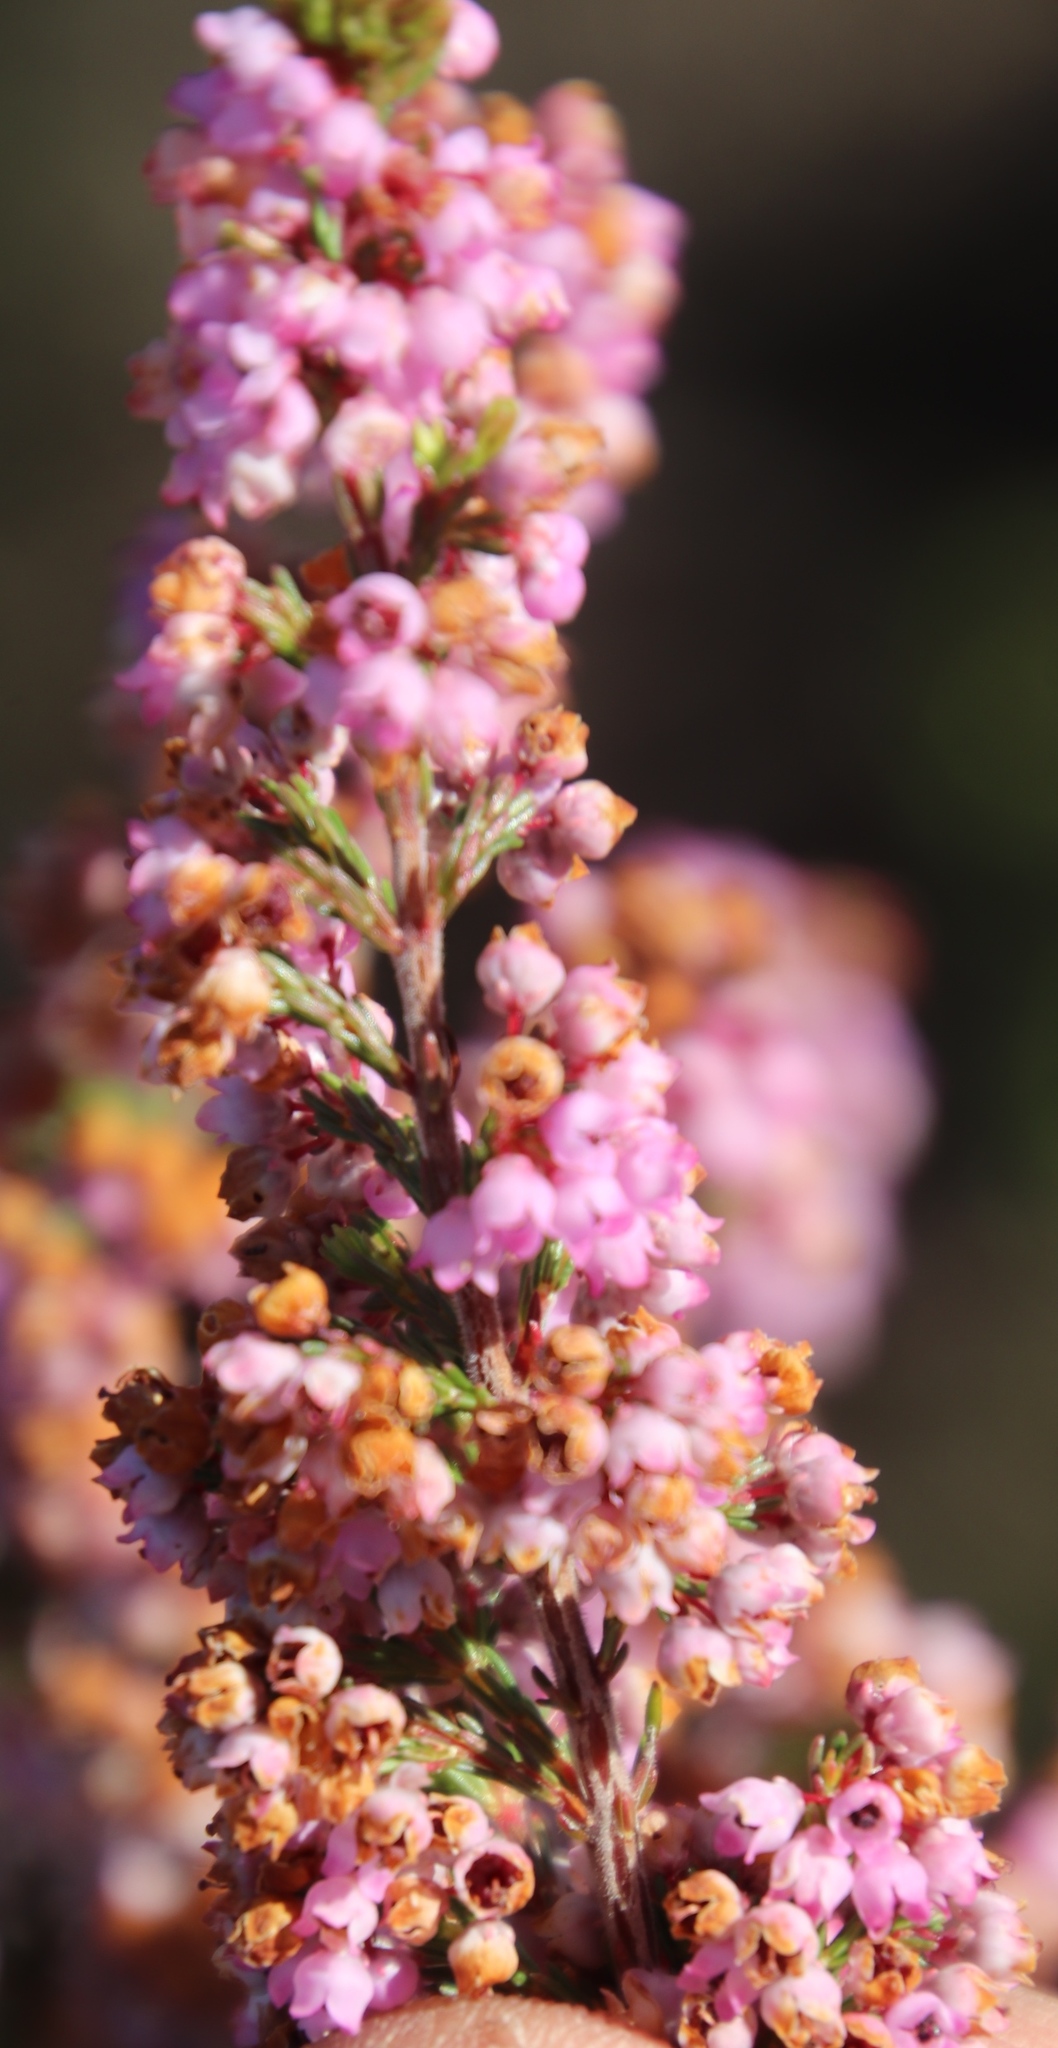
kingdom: Plantae
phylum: Tracheophyta
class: Magnoliopsida
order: Ericales
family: Ericaceae
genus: Erica
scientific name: Erica mauritanica
